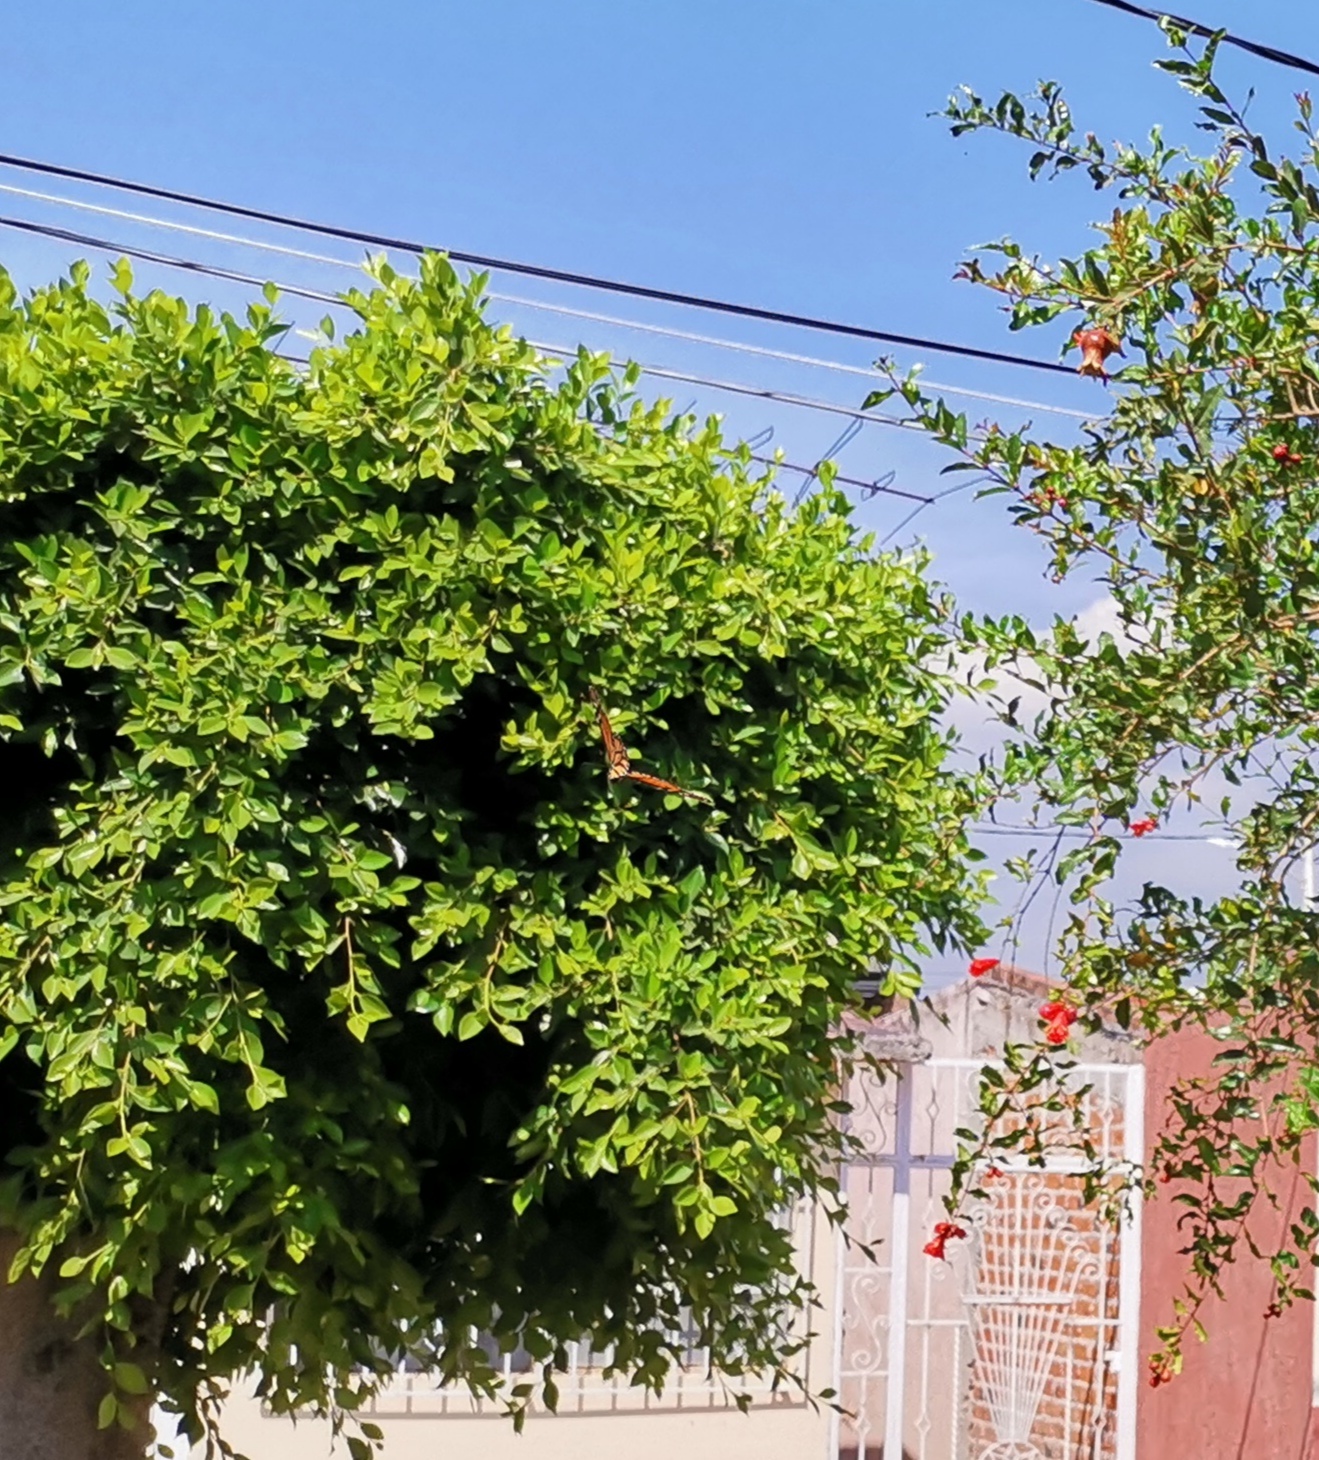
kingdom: Animalia
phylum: Arthropoda
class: Insecta
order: Lepidoptera
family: Nymphalidae
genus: Danaus
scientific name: Danaus plexippus
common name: Monarch
